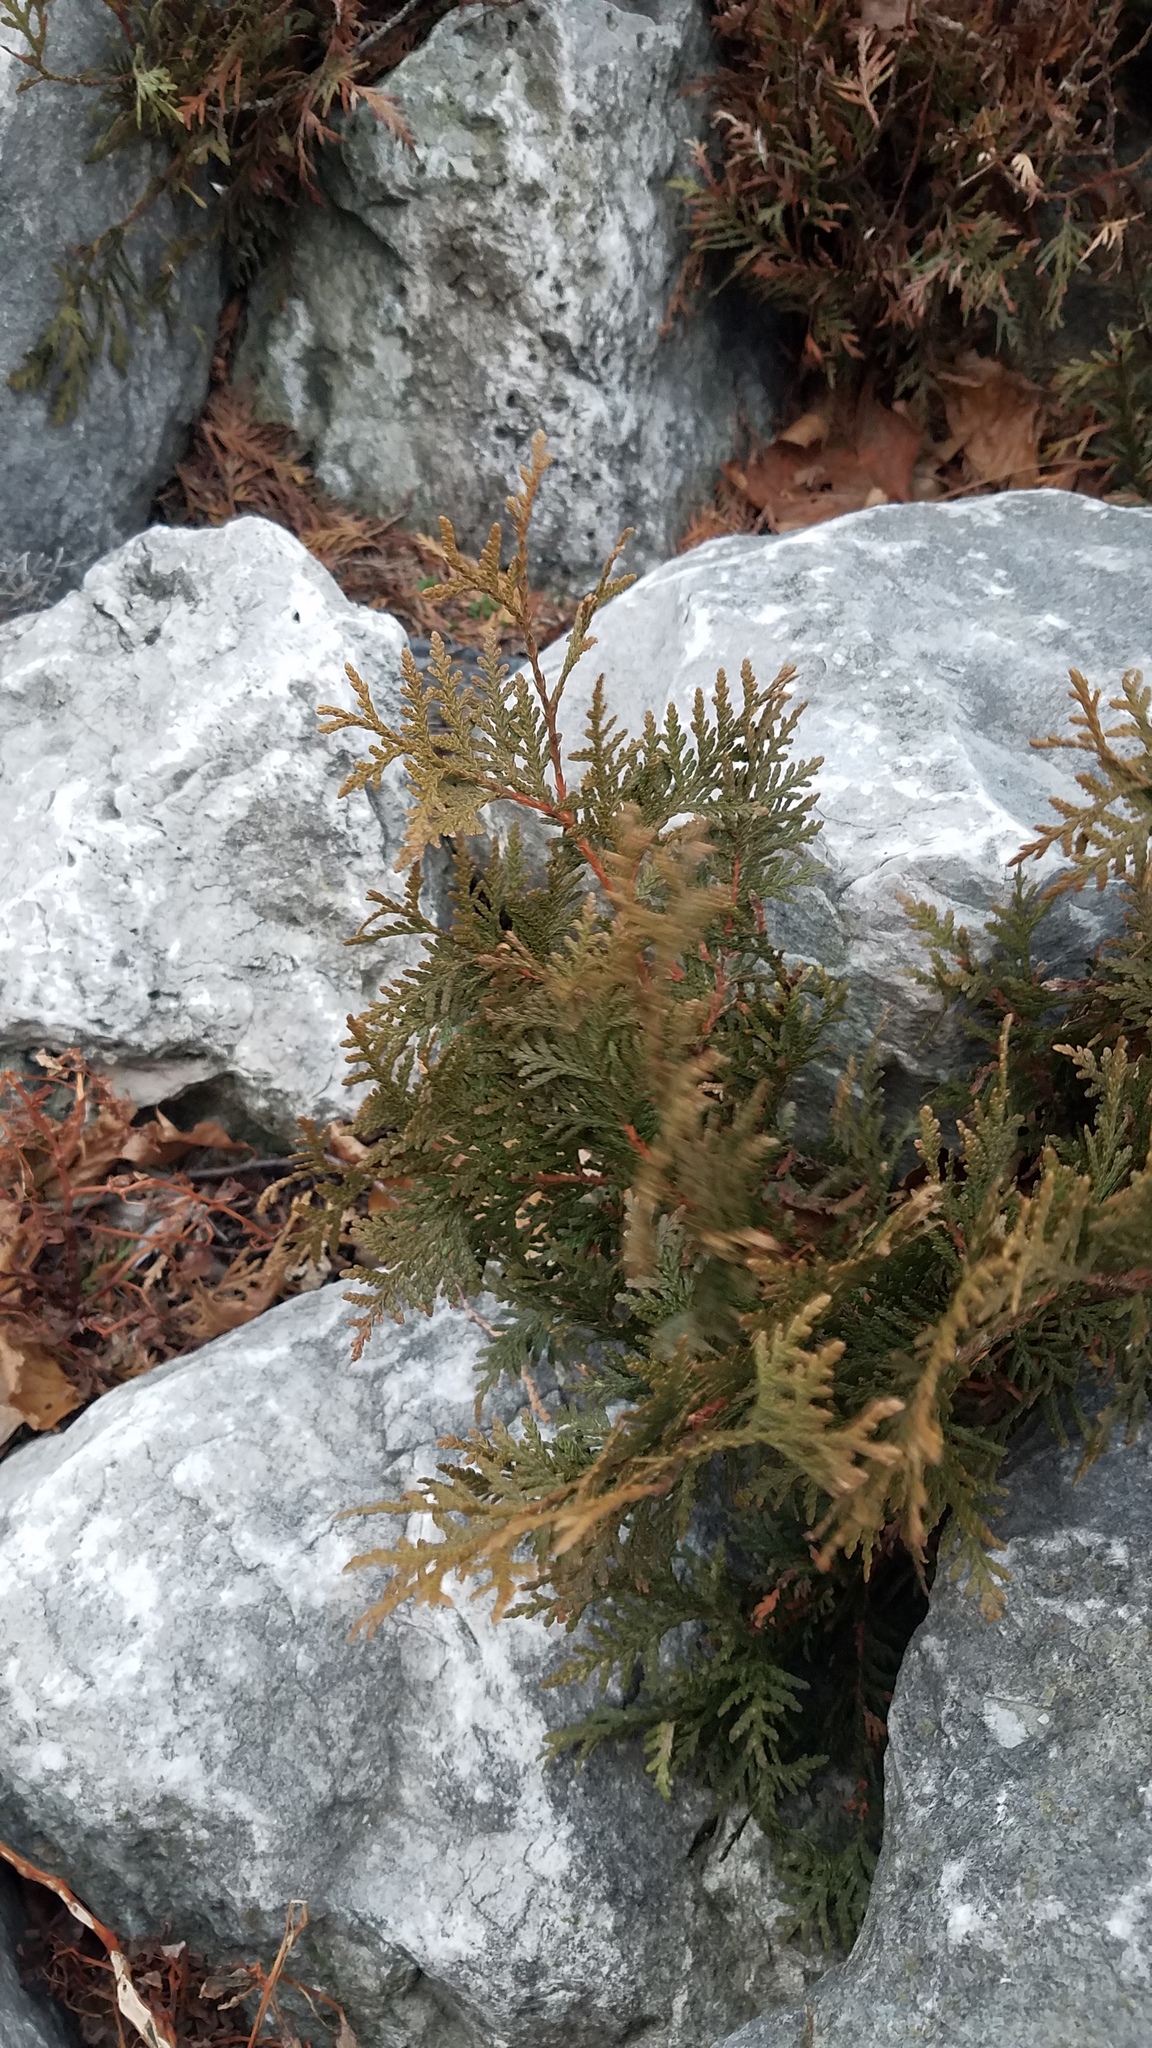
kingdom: Plantae
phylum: Tracheophyta
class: Pinopsida
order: Pinales
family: Cupressaceae
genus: Thuja
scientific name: Thuja occidentalis
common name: Northern white-cedar
